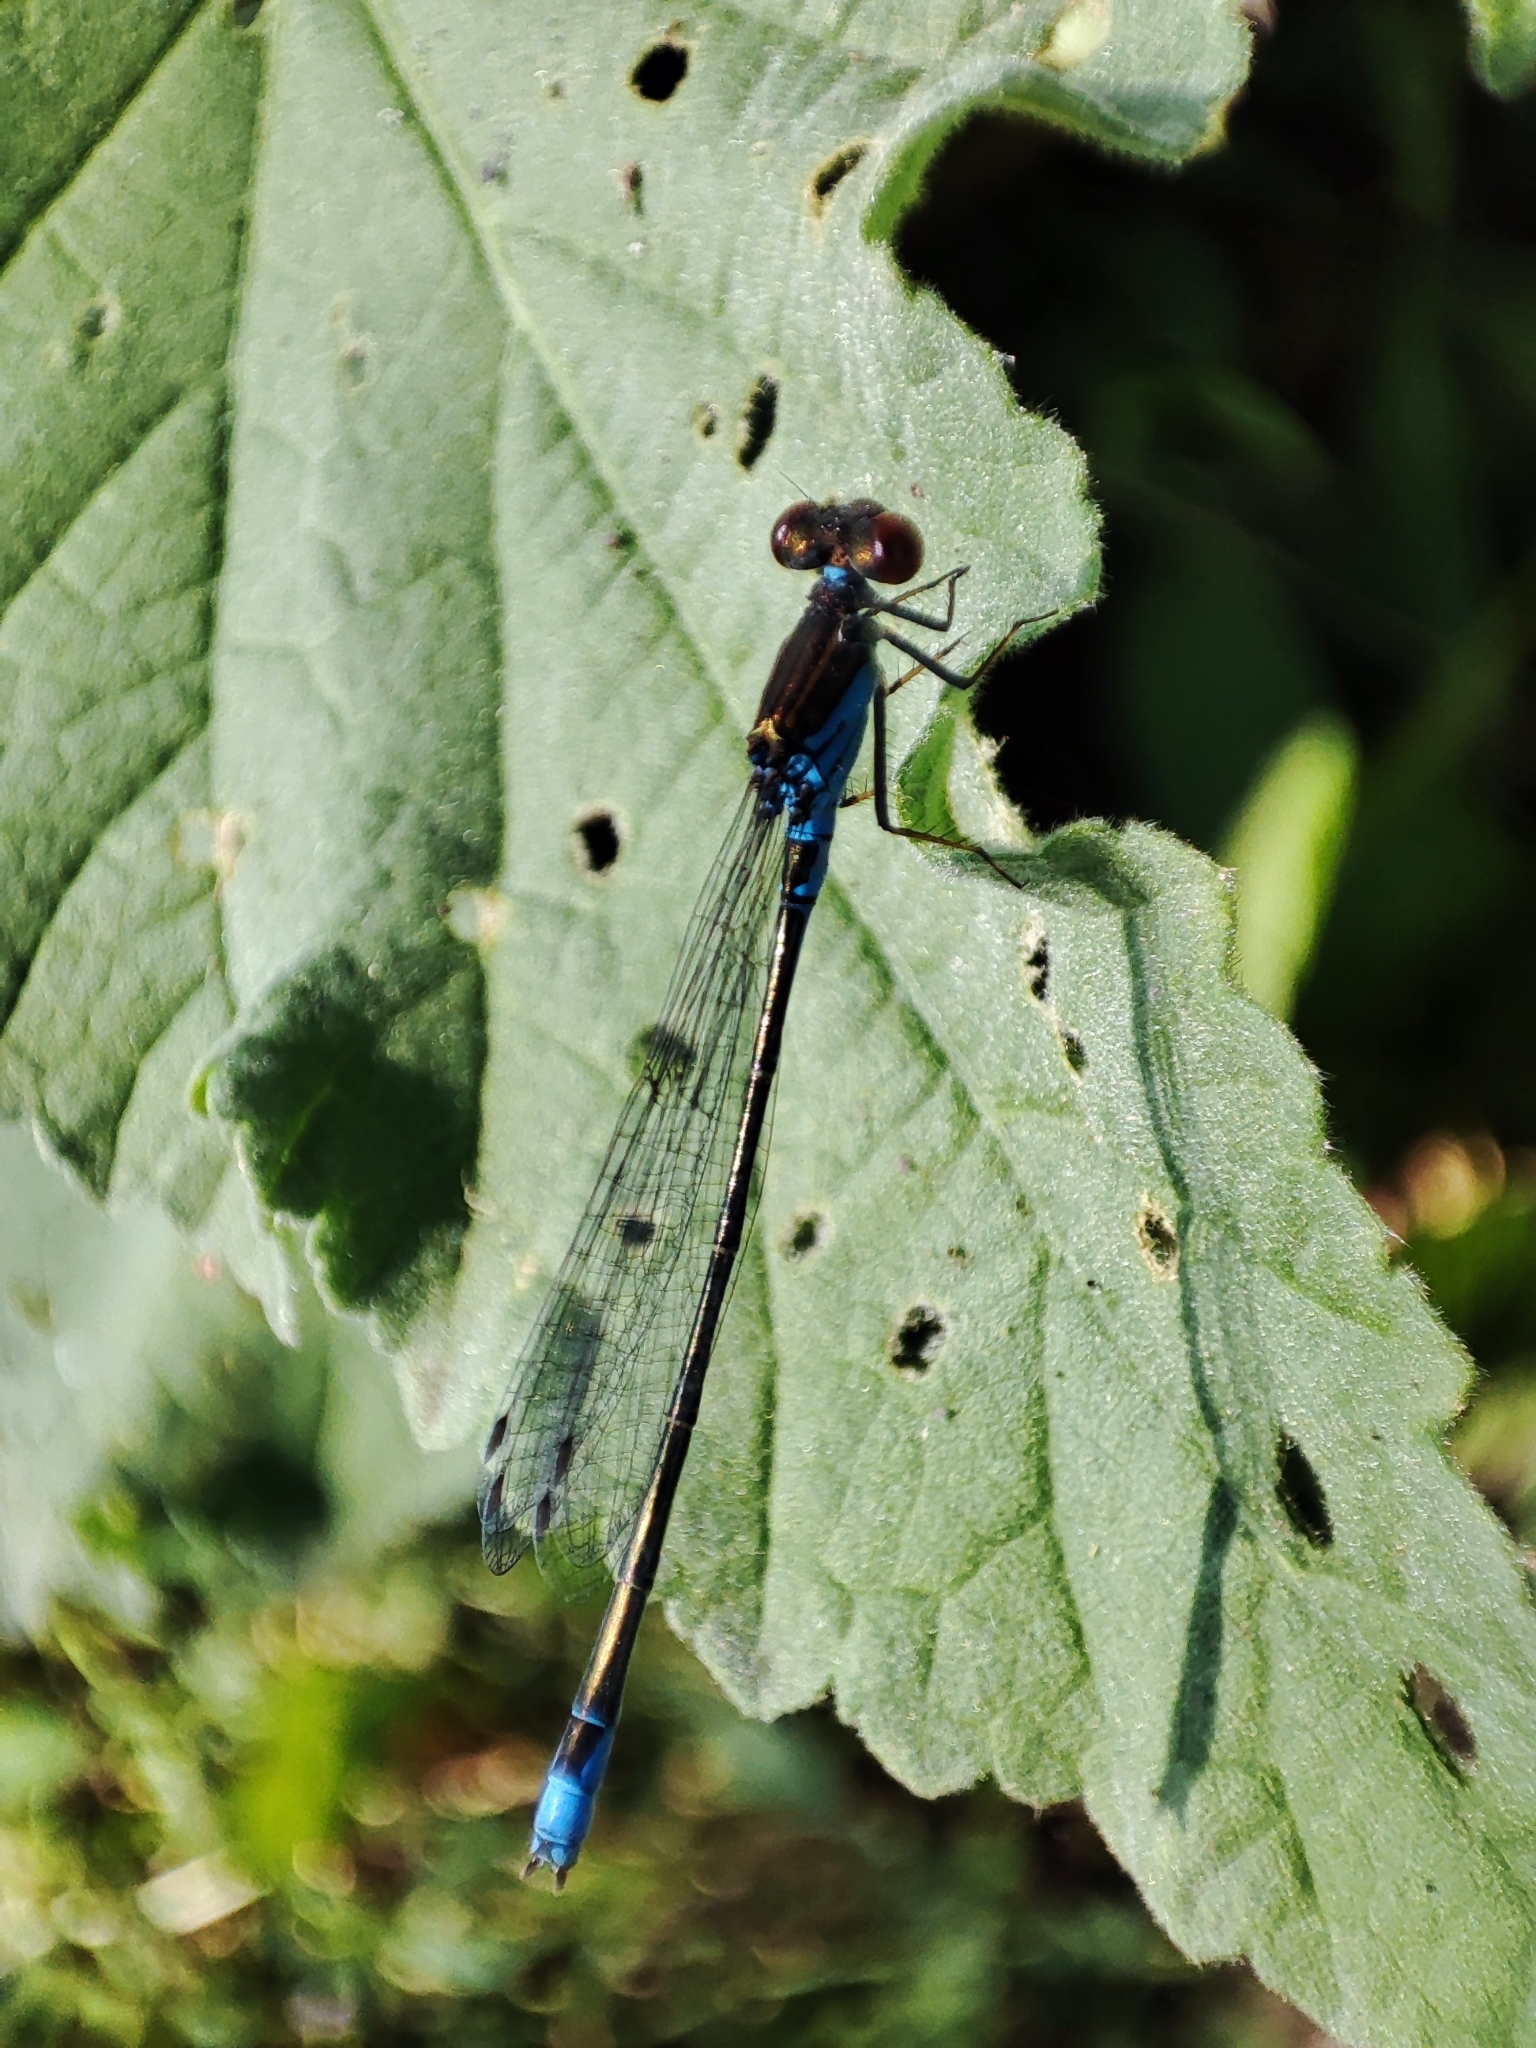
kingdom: Animalia
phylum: Arthropoda
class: Insecta
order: Odonata
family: Coenagrionidae
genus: Erythromma
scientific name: Erythromma viridulum
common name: Small red-eyed damselfly
